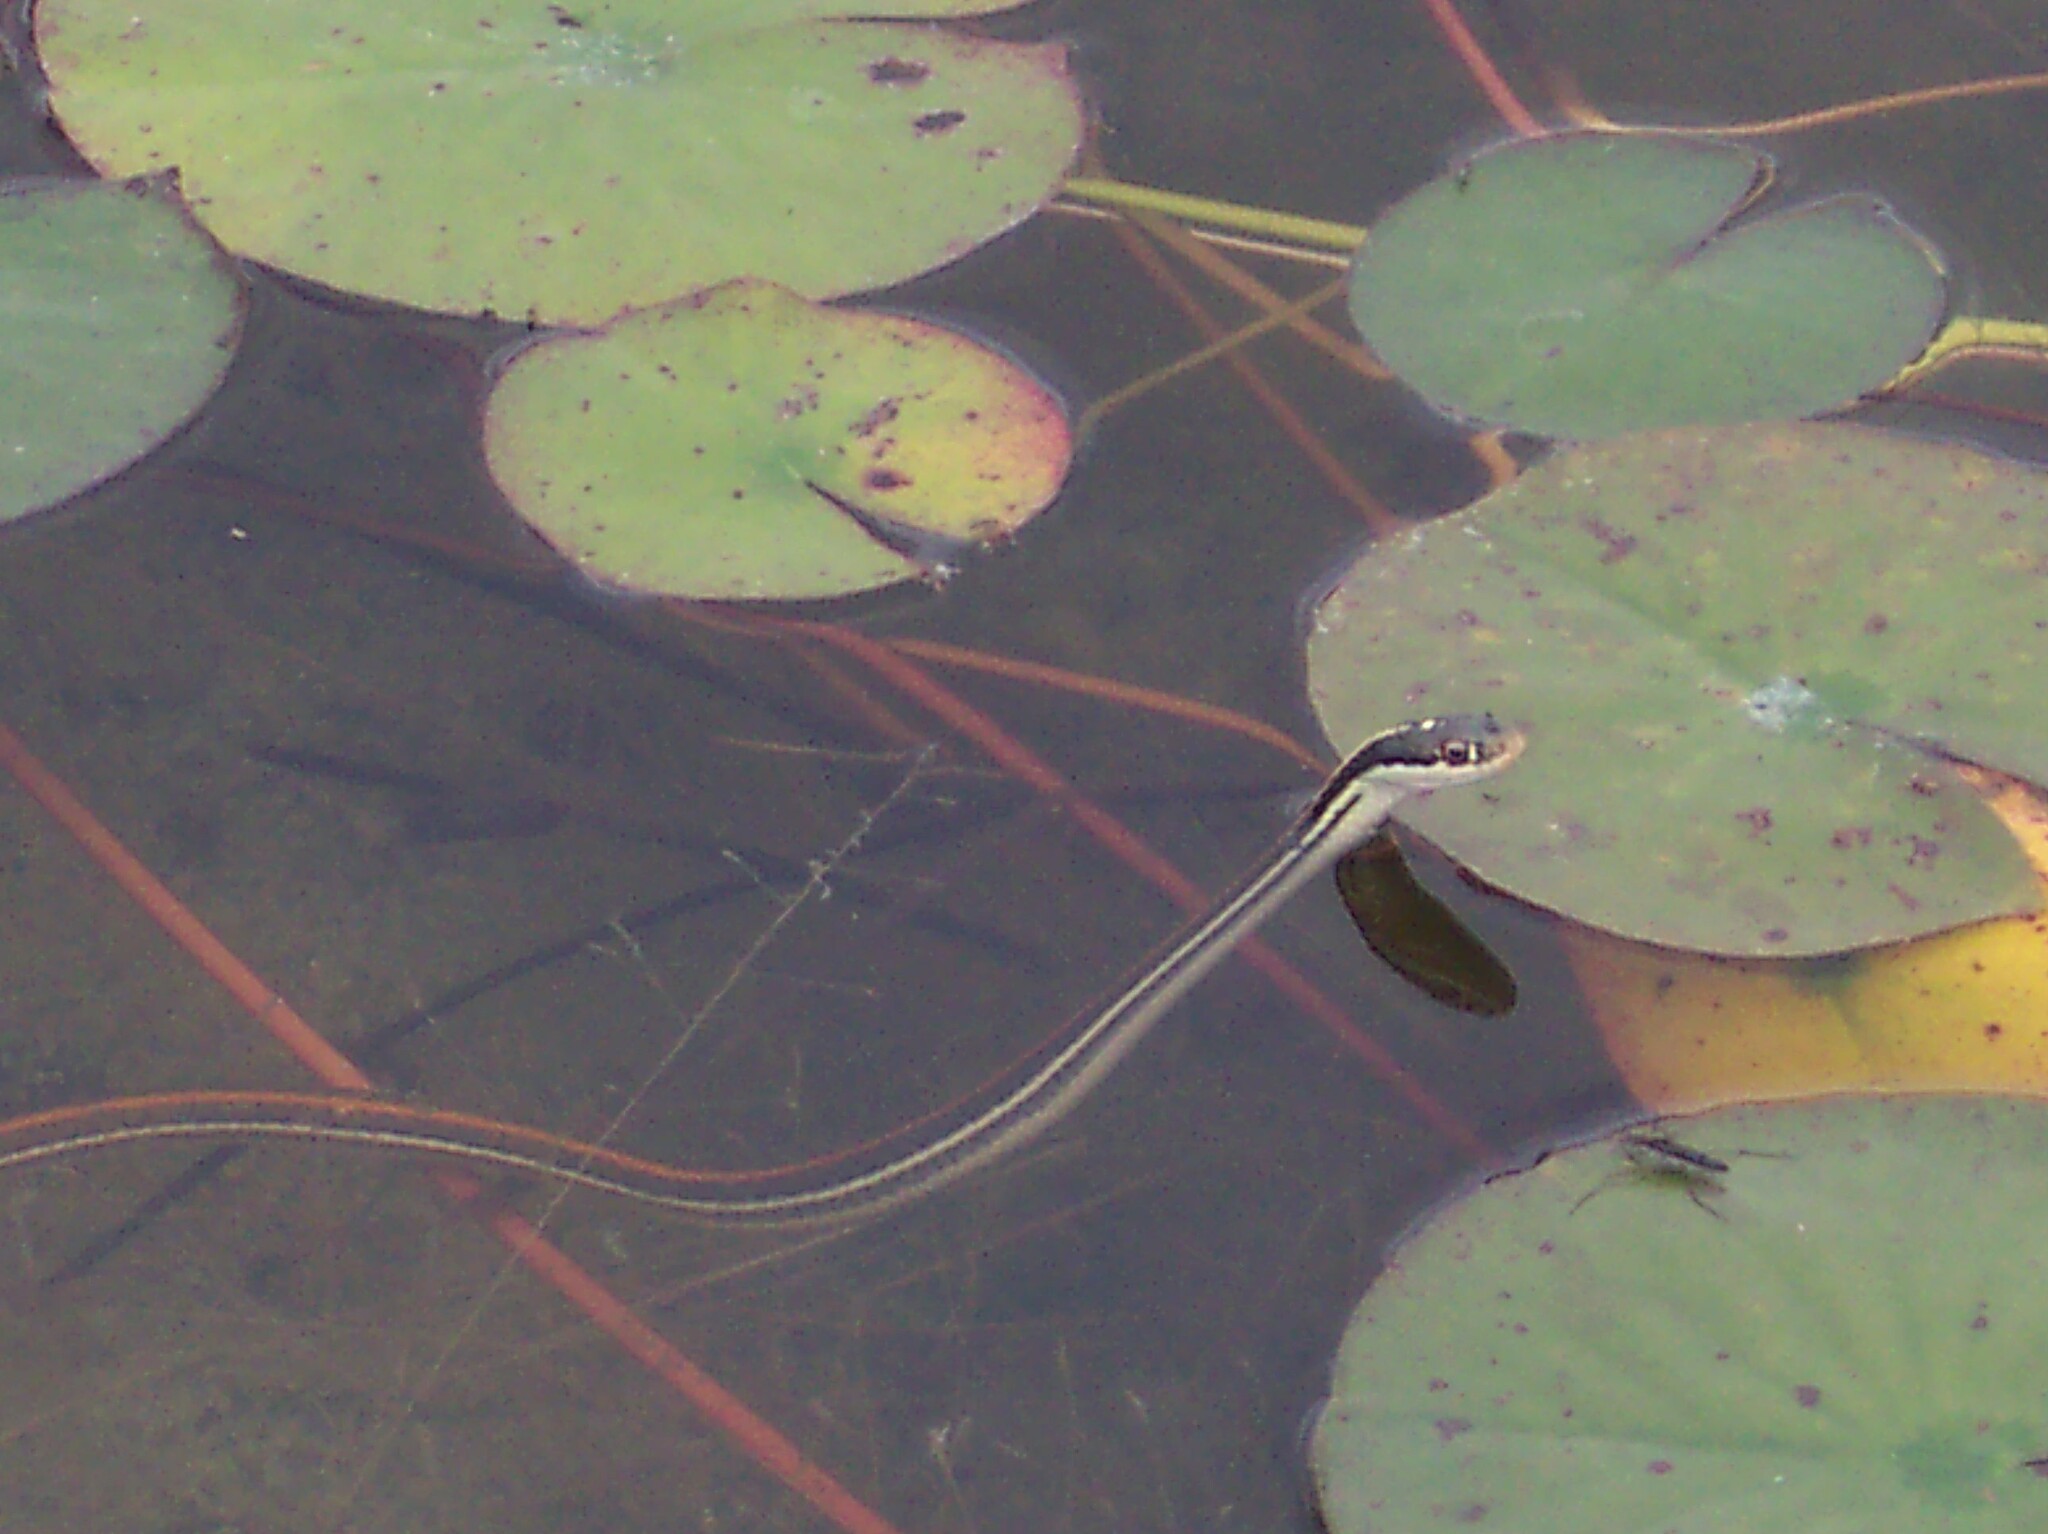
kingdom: Animalia
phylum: Chordata
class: Squamata
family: Colubridae
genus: Thamnophis
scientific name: Thamnophis proximus
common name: Western ribbon snake
